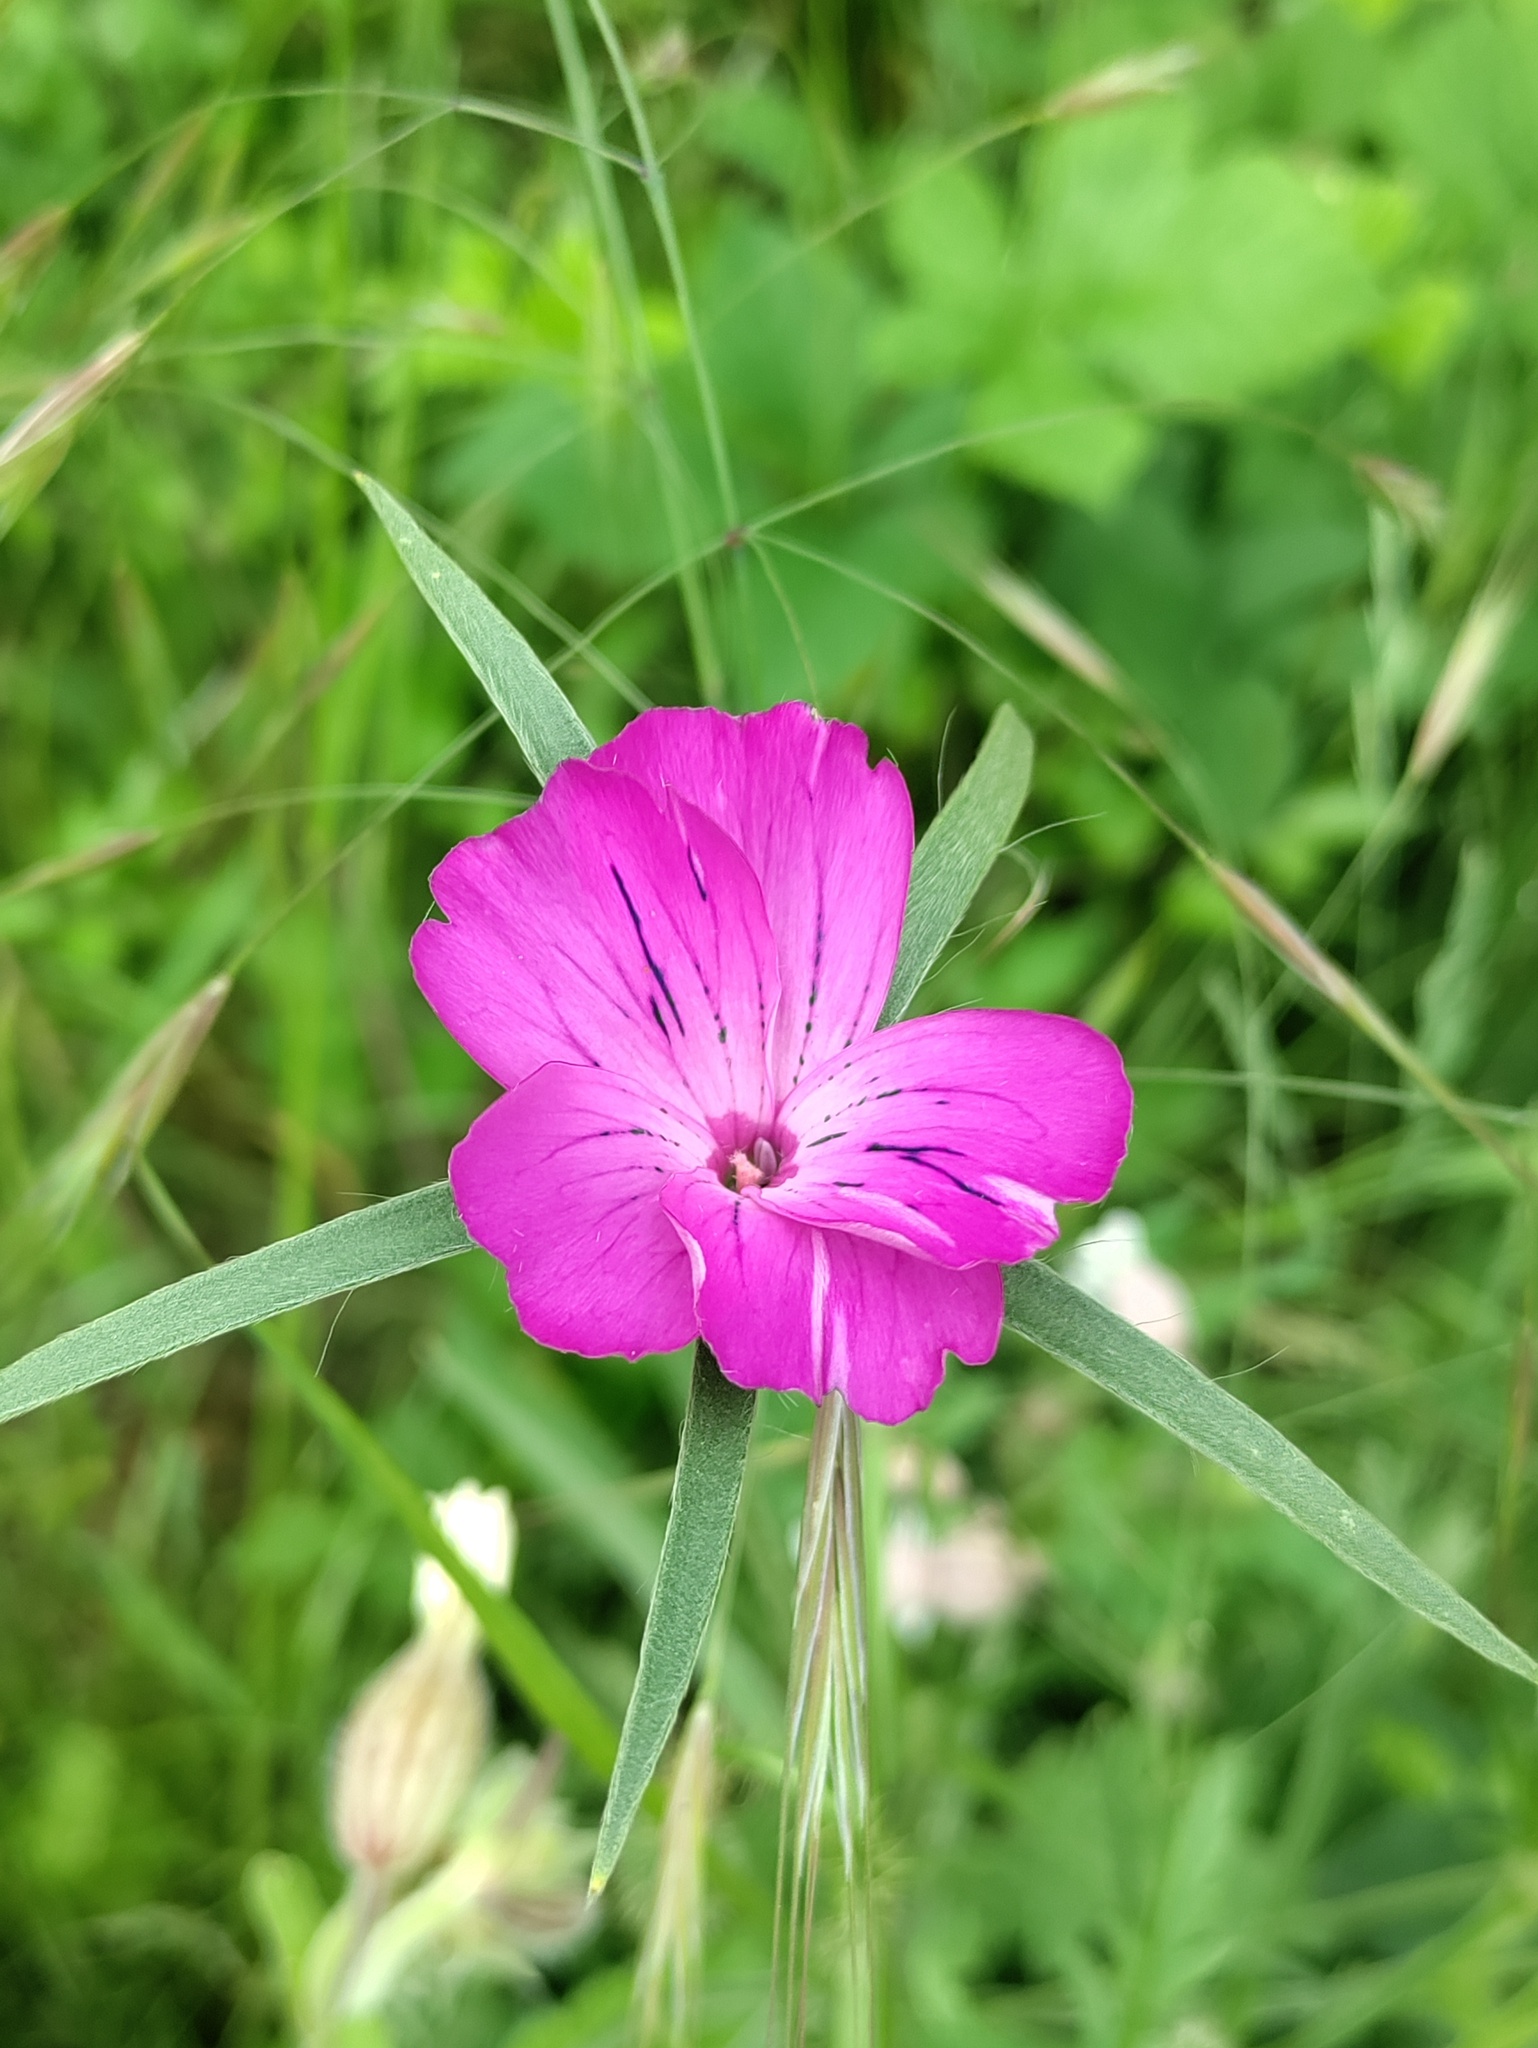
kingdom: Plantae
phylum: Tracheophyta
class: Magnoliopsida
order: Caryophyllales
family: Caryophyllaceae
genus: Agrostemma
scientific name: Agrostemma githago
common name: Common corncockle
